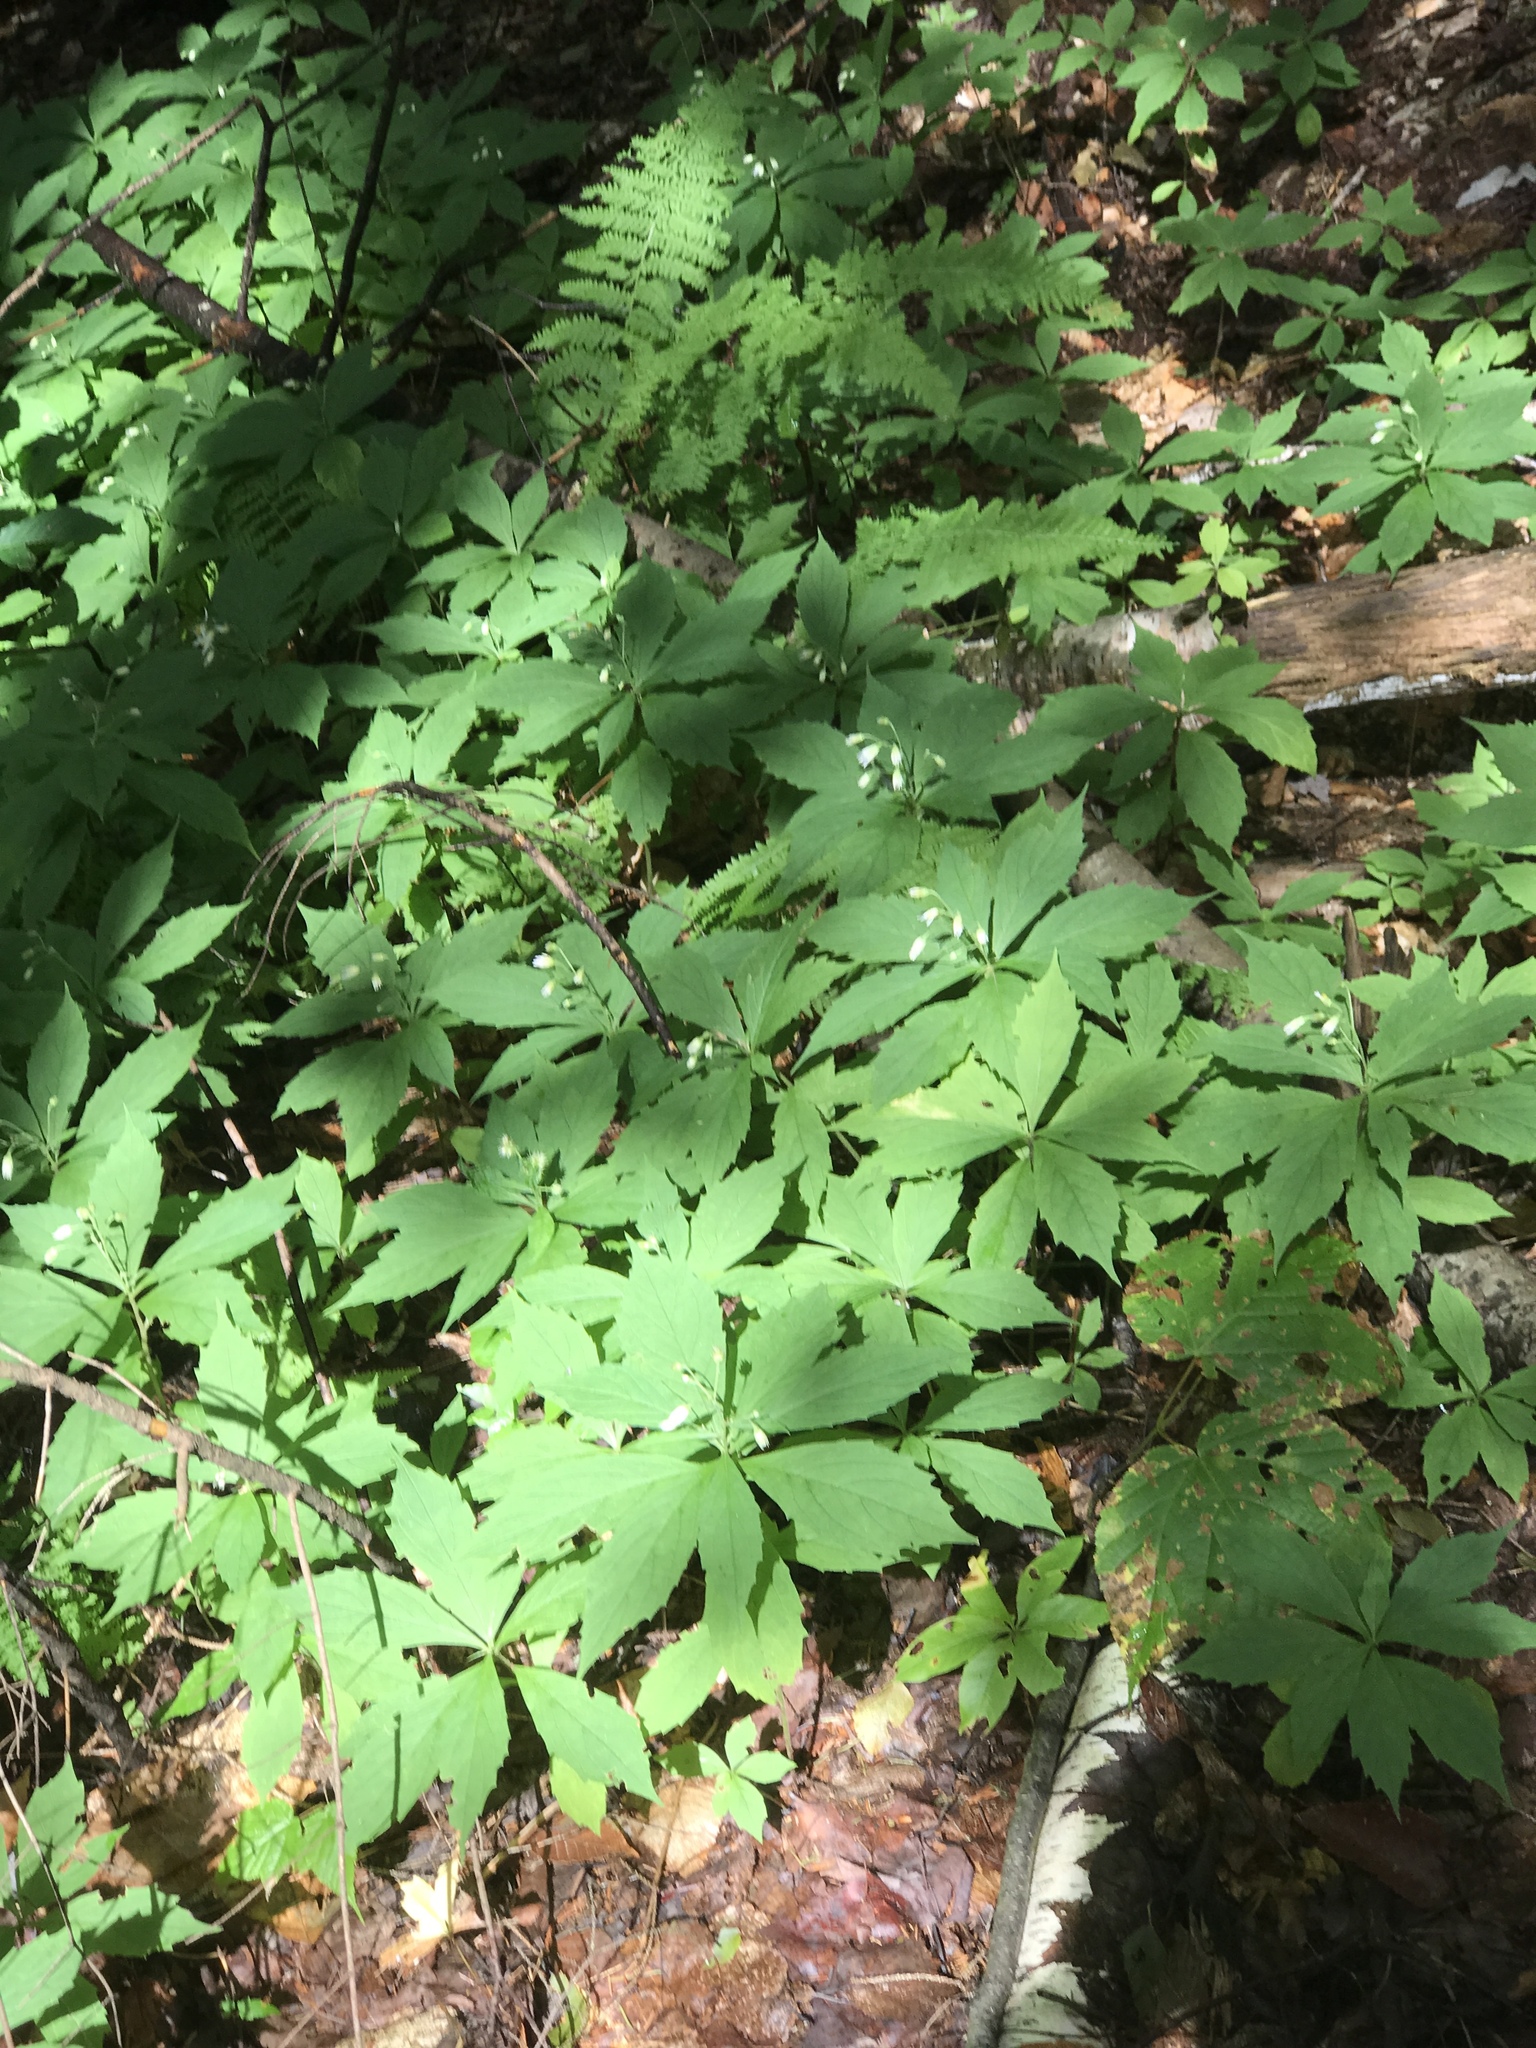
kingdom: Plantae
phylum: Tracheophyta
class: Magnoliopsida
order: Asterales
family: Asteraceae
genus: Oclemena
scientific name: Oclemena acuminata
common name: Mountain aster
